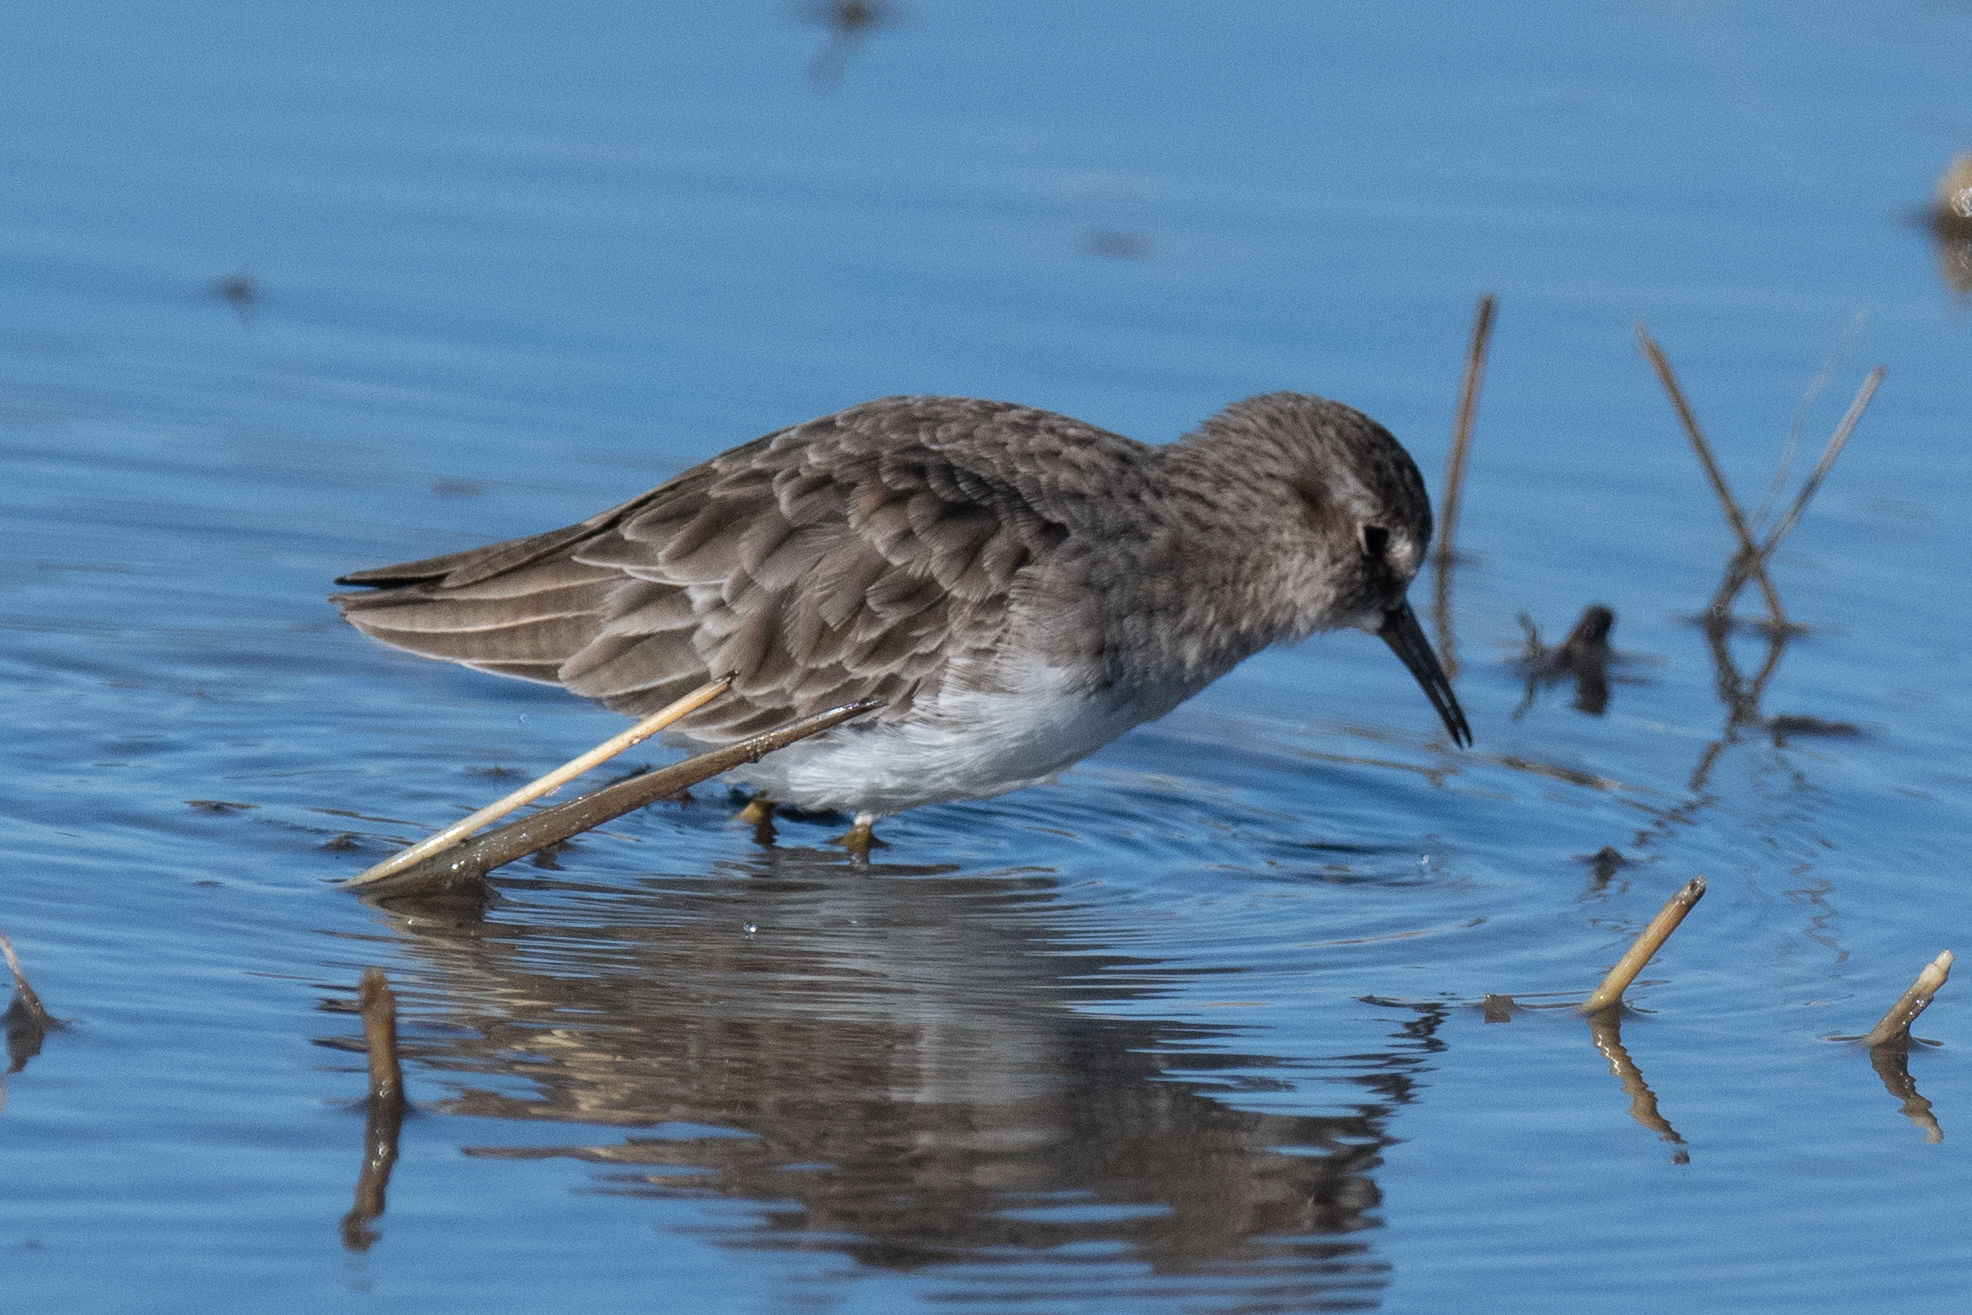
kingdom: Animalia
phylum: Chordata
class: Aves
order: Charadriiformes
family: Scolopacidae
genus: Calidris
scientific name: Calidris minutilla
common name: Least sandpiper
